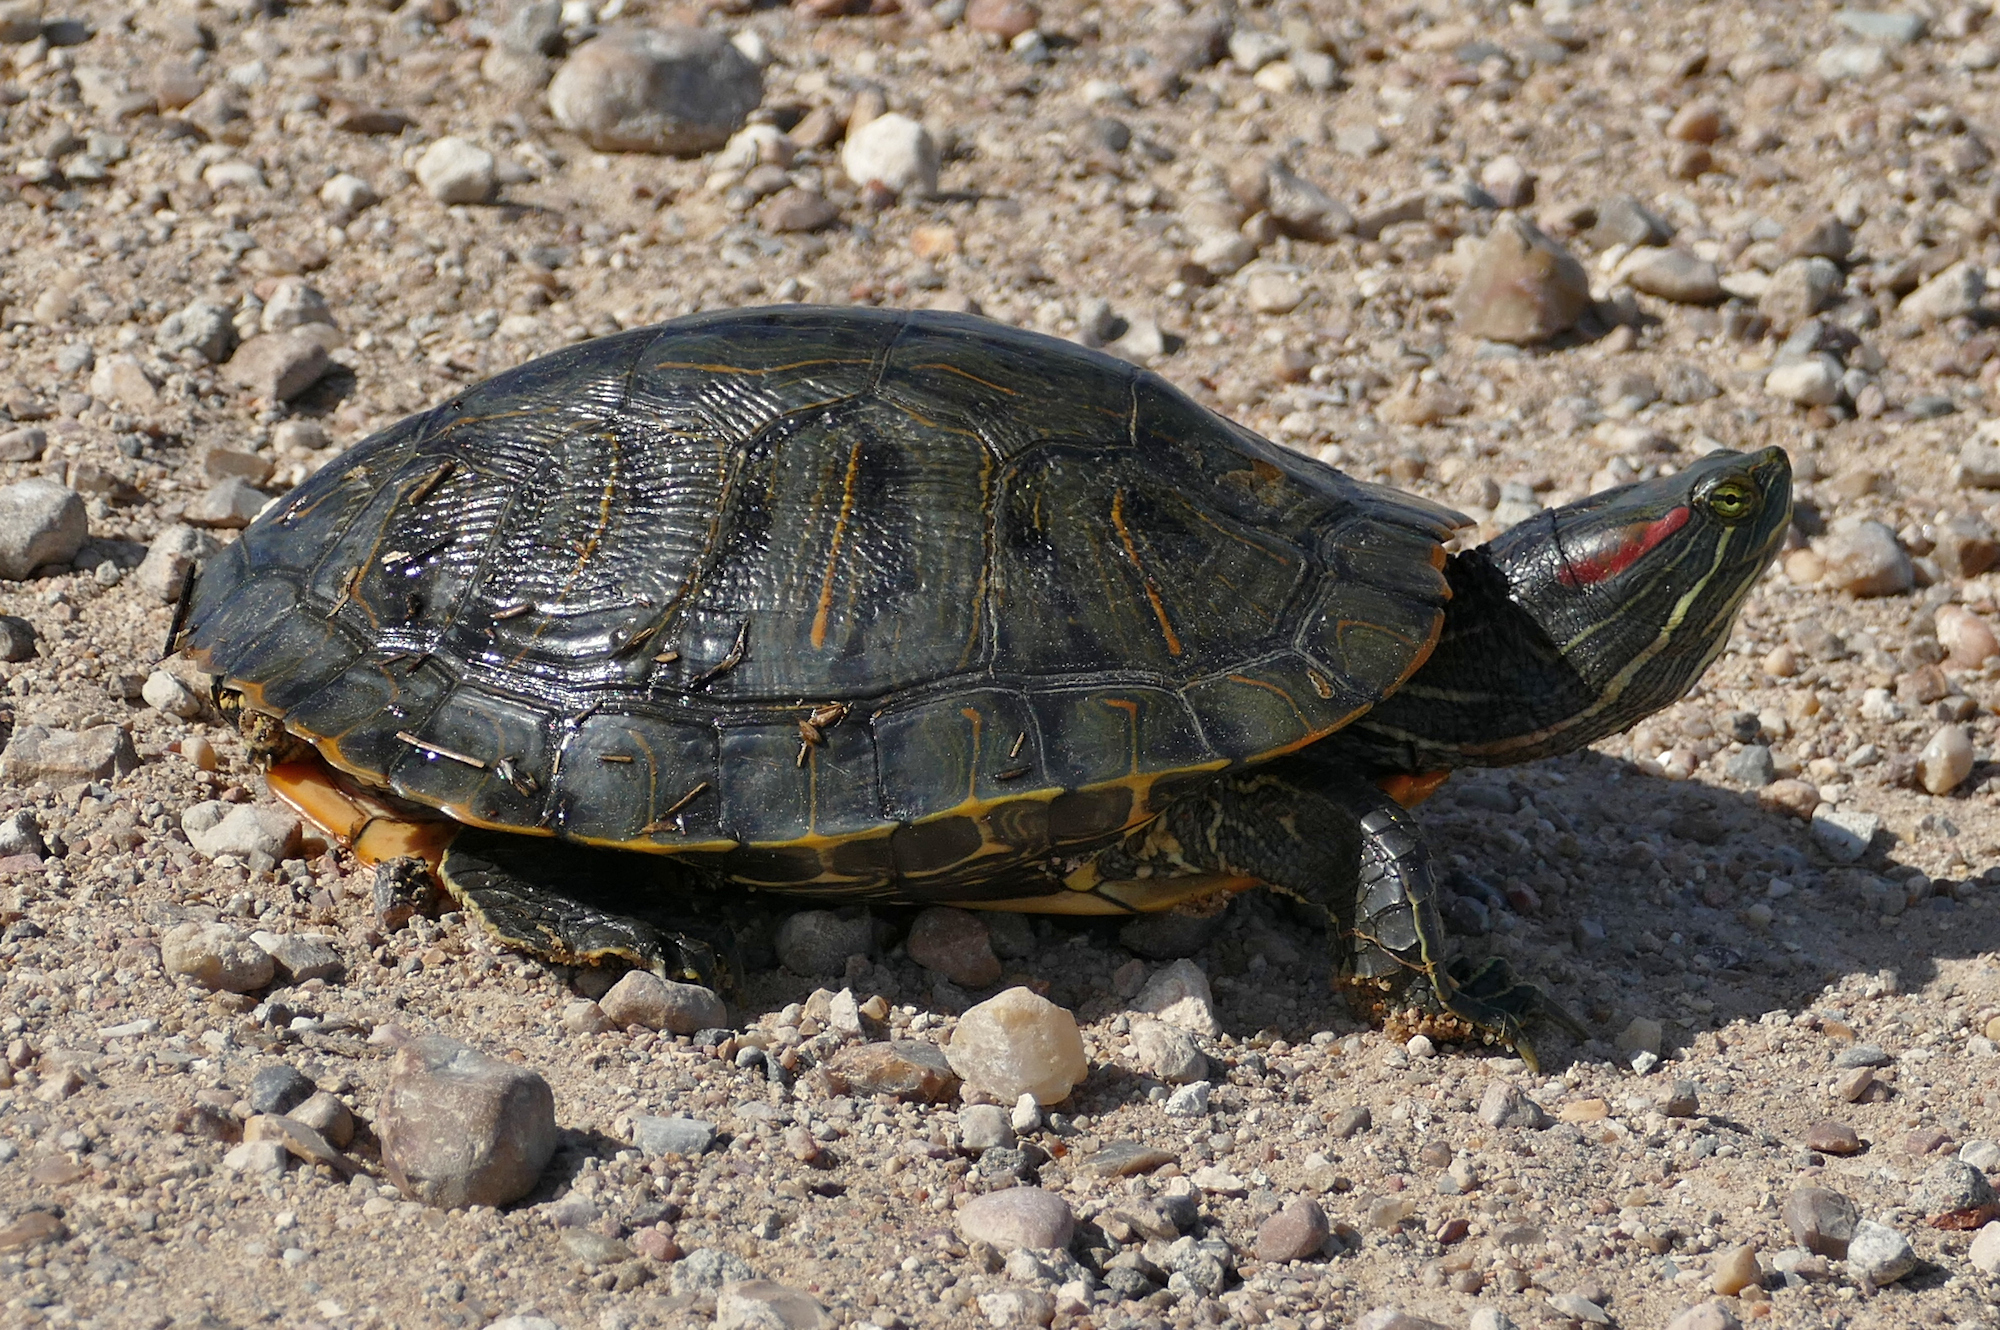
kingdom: Animalia
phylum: Chordata
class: Testudines
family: Emydidae
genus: Trachemys
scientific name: Trachemys scripta
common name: Slider
